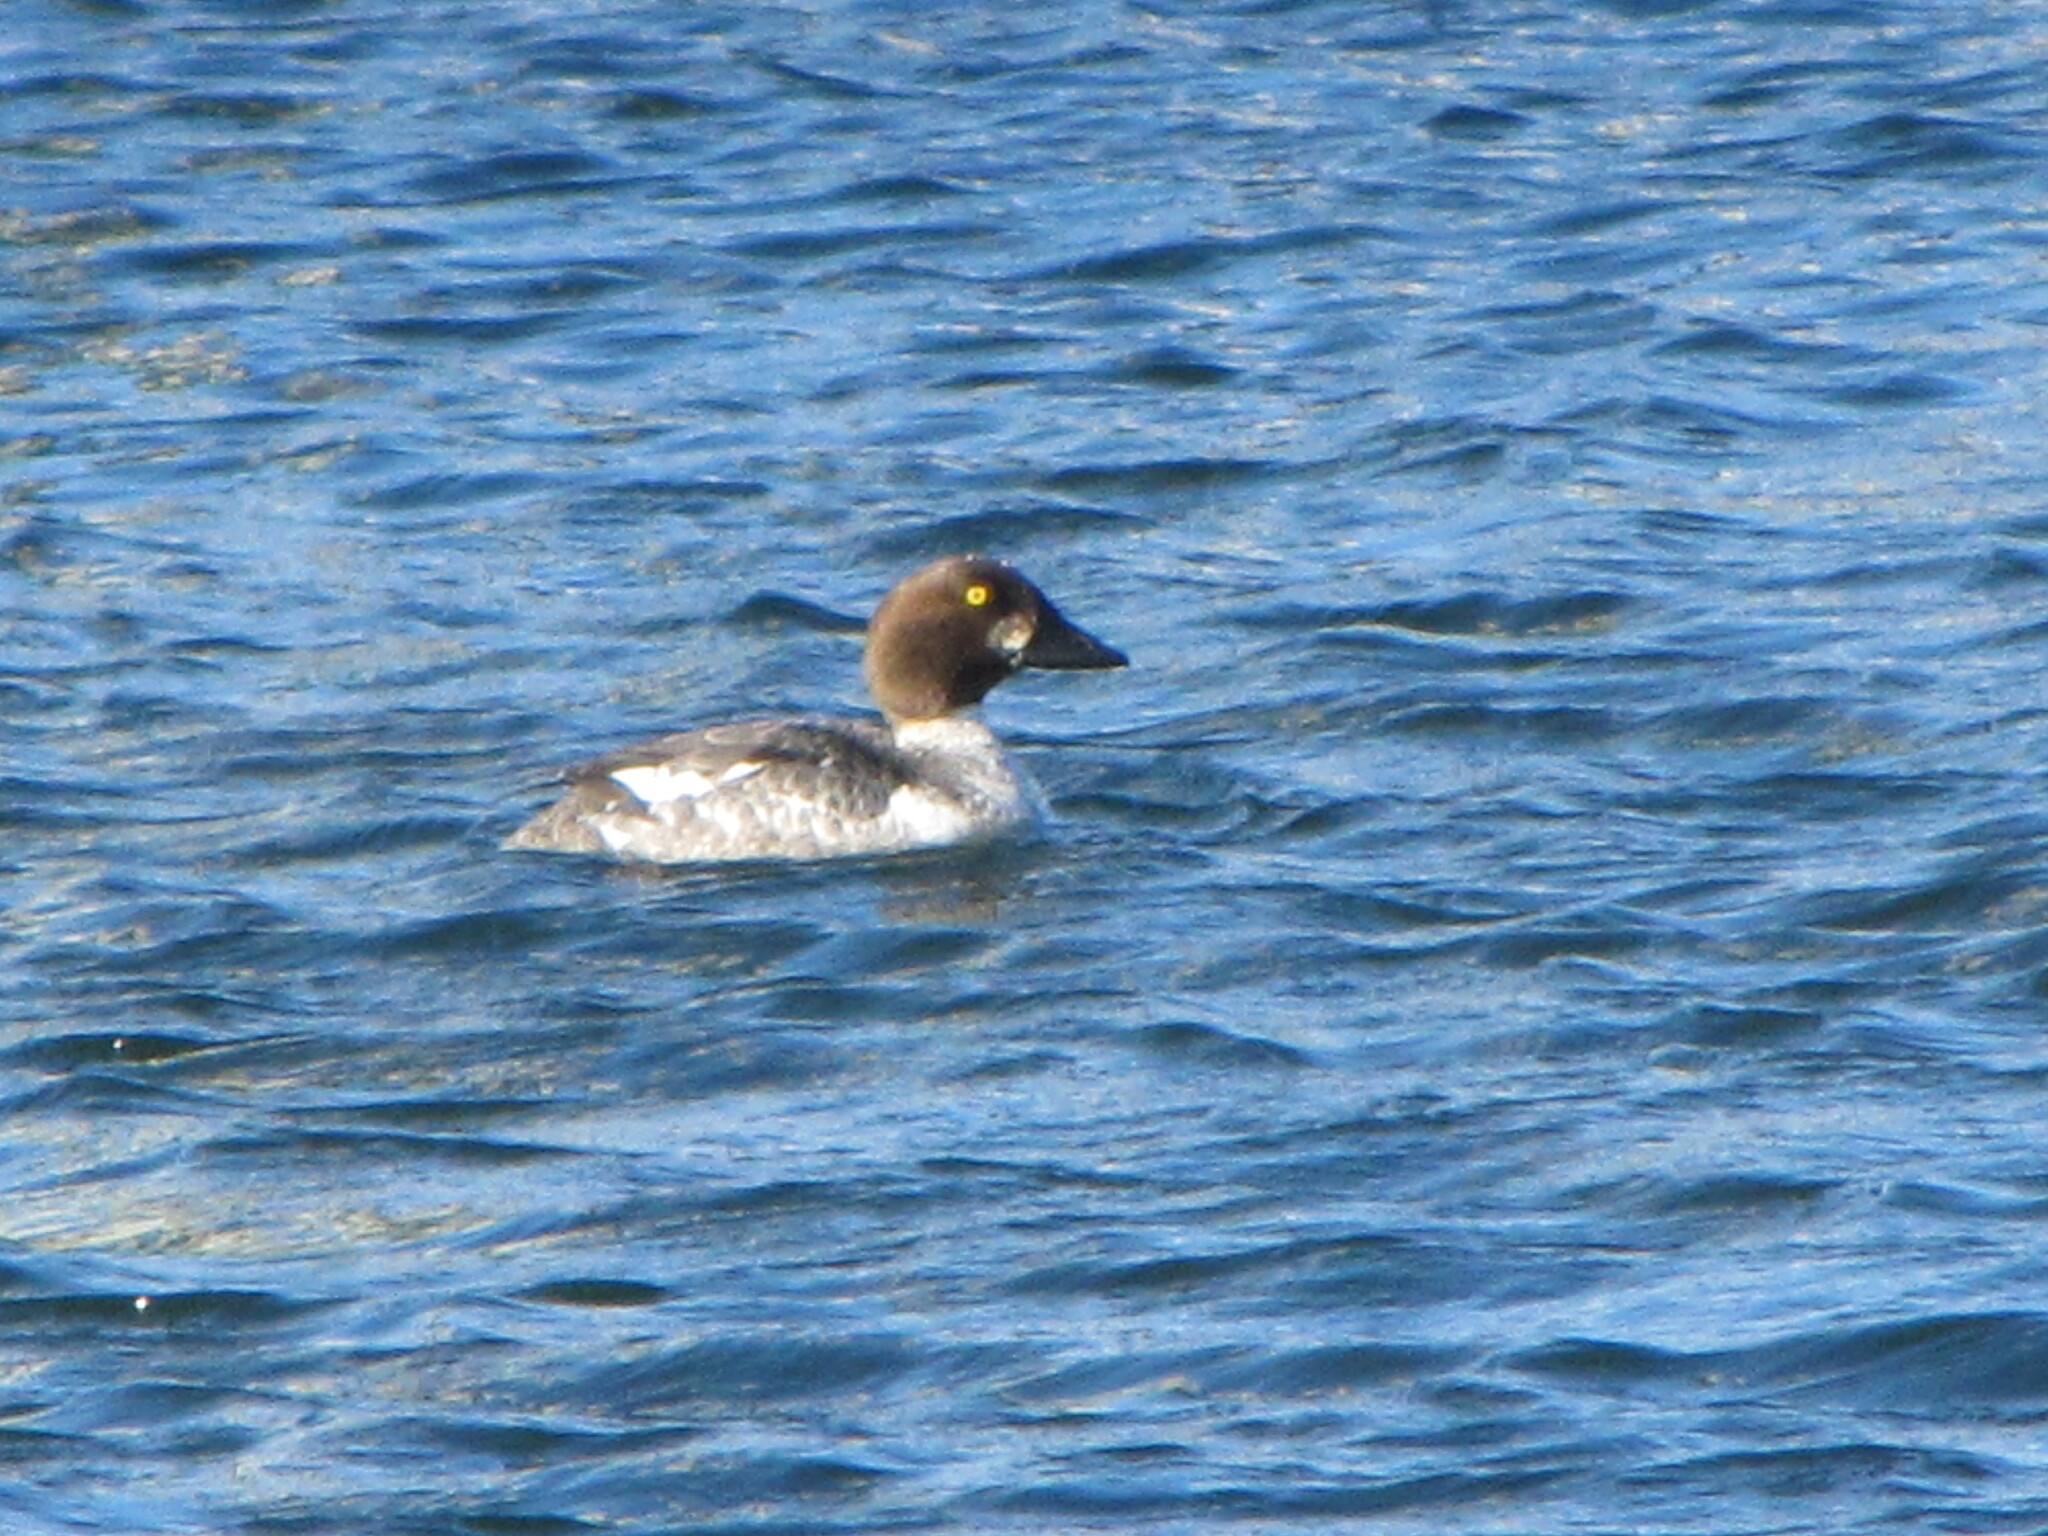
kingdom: Animalia
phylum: Chordata
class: Aves
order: Anseriformes
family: Anatidae
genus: Bucephala
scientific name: Bucephala clangula
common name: Common goldeneye
